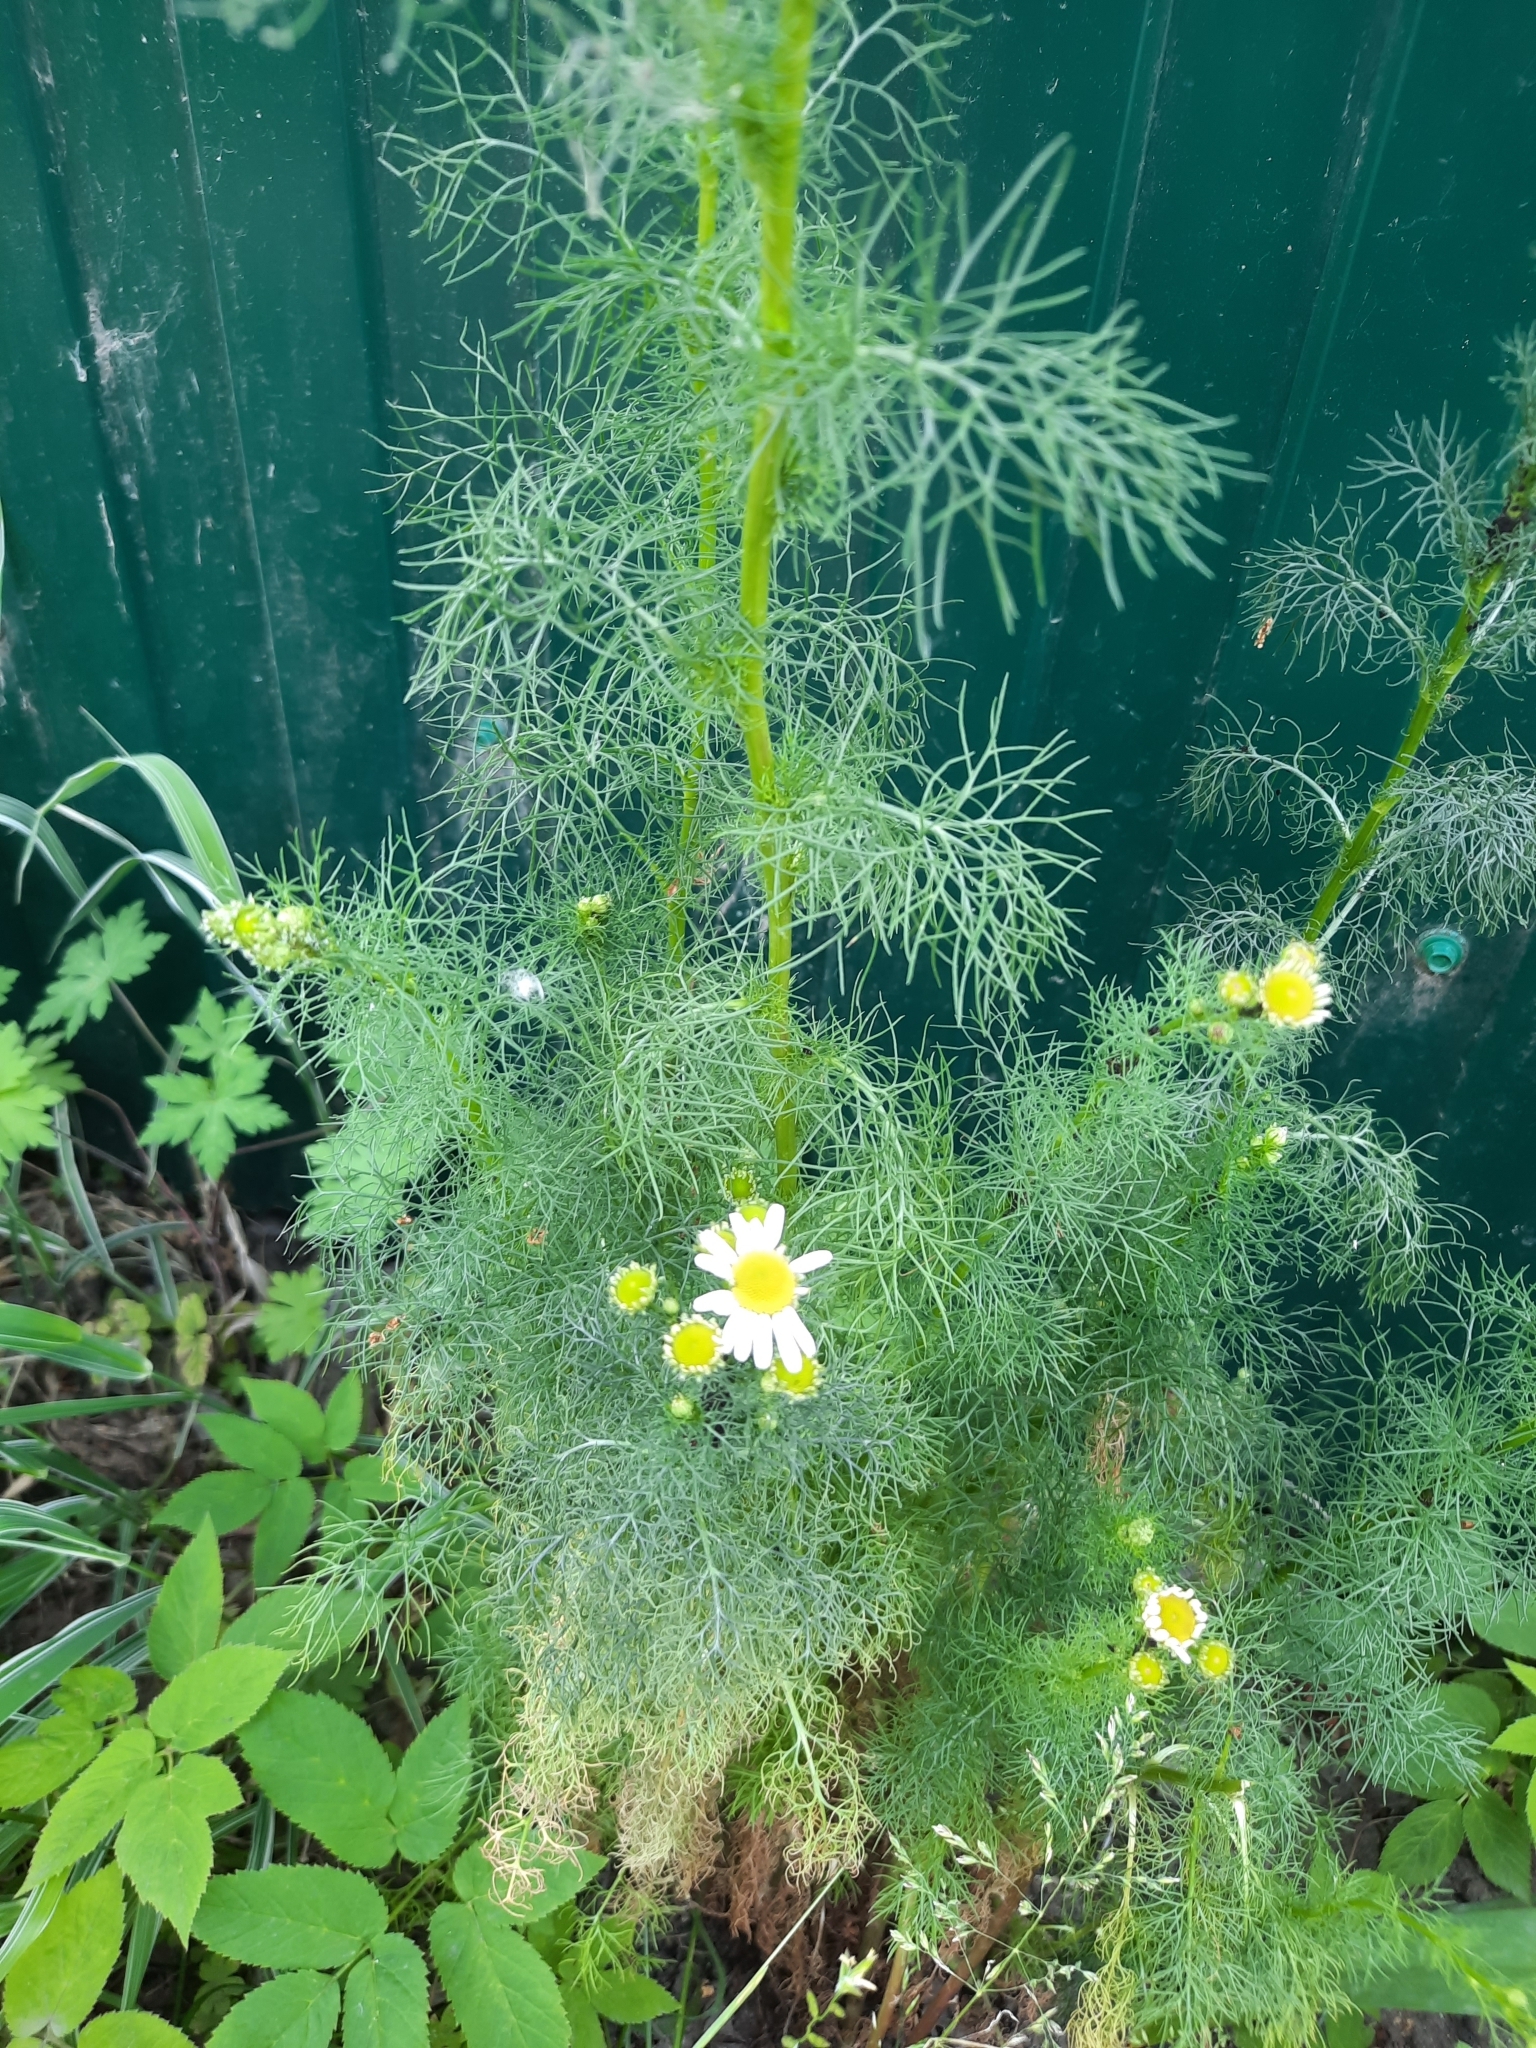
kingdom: Plantae
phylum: Tracheophyta
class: Magnoliopsida
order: Asterales
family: Asteraceae
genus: Tripleurospermum
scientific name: Tripleurospermum inodorum
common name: Scentless mayweed
